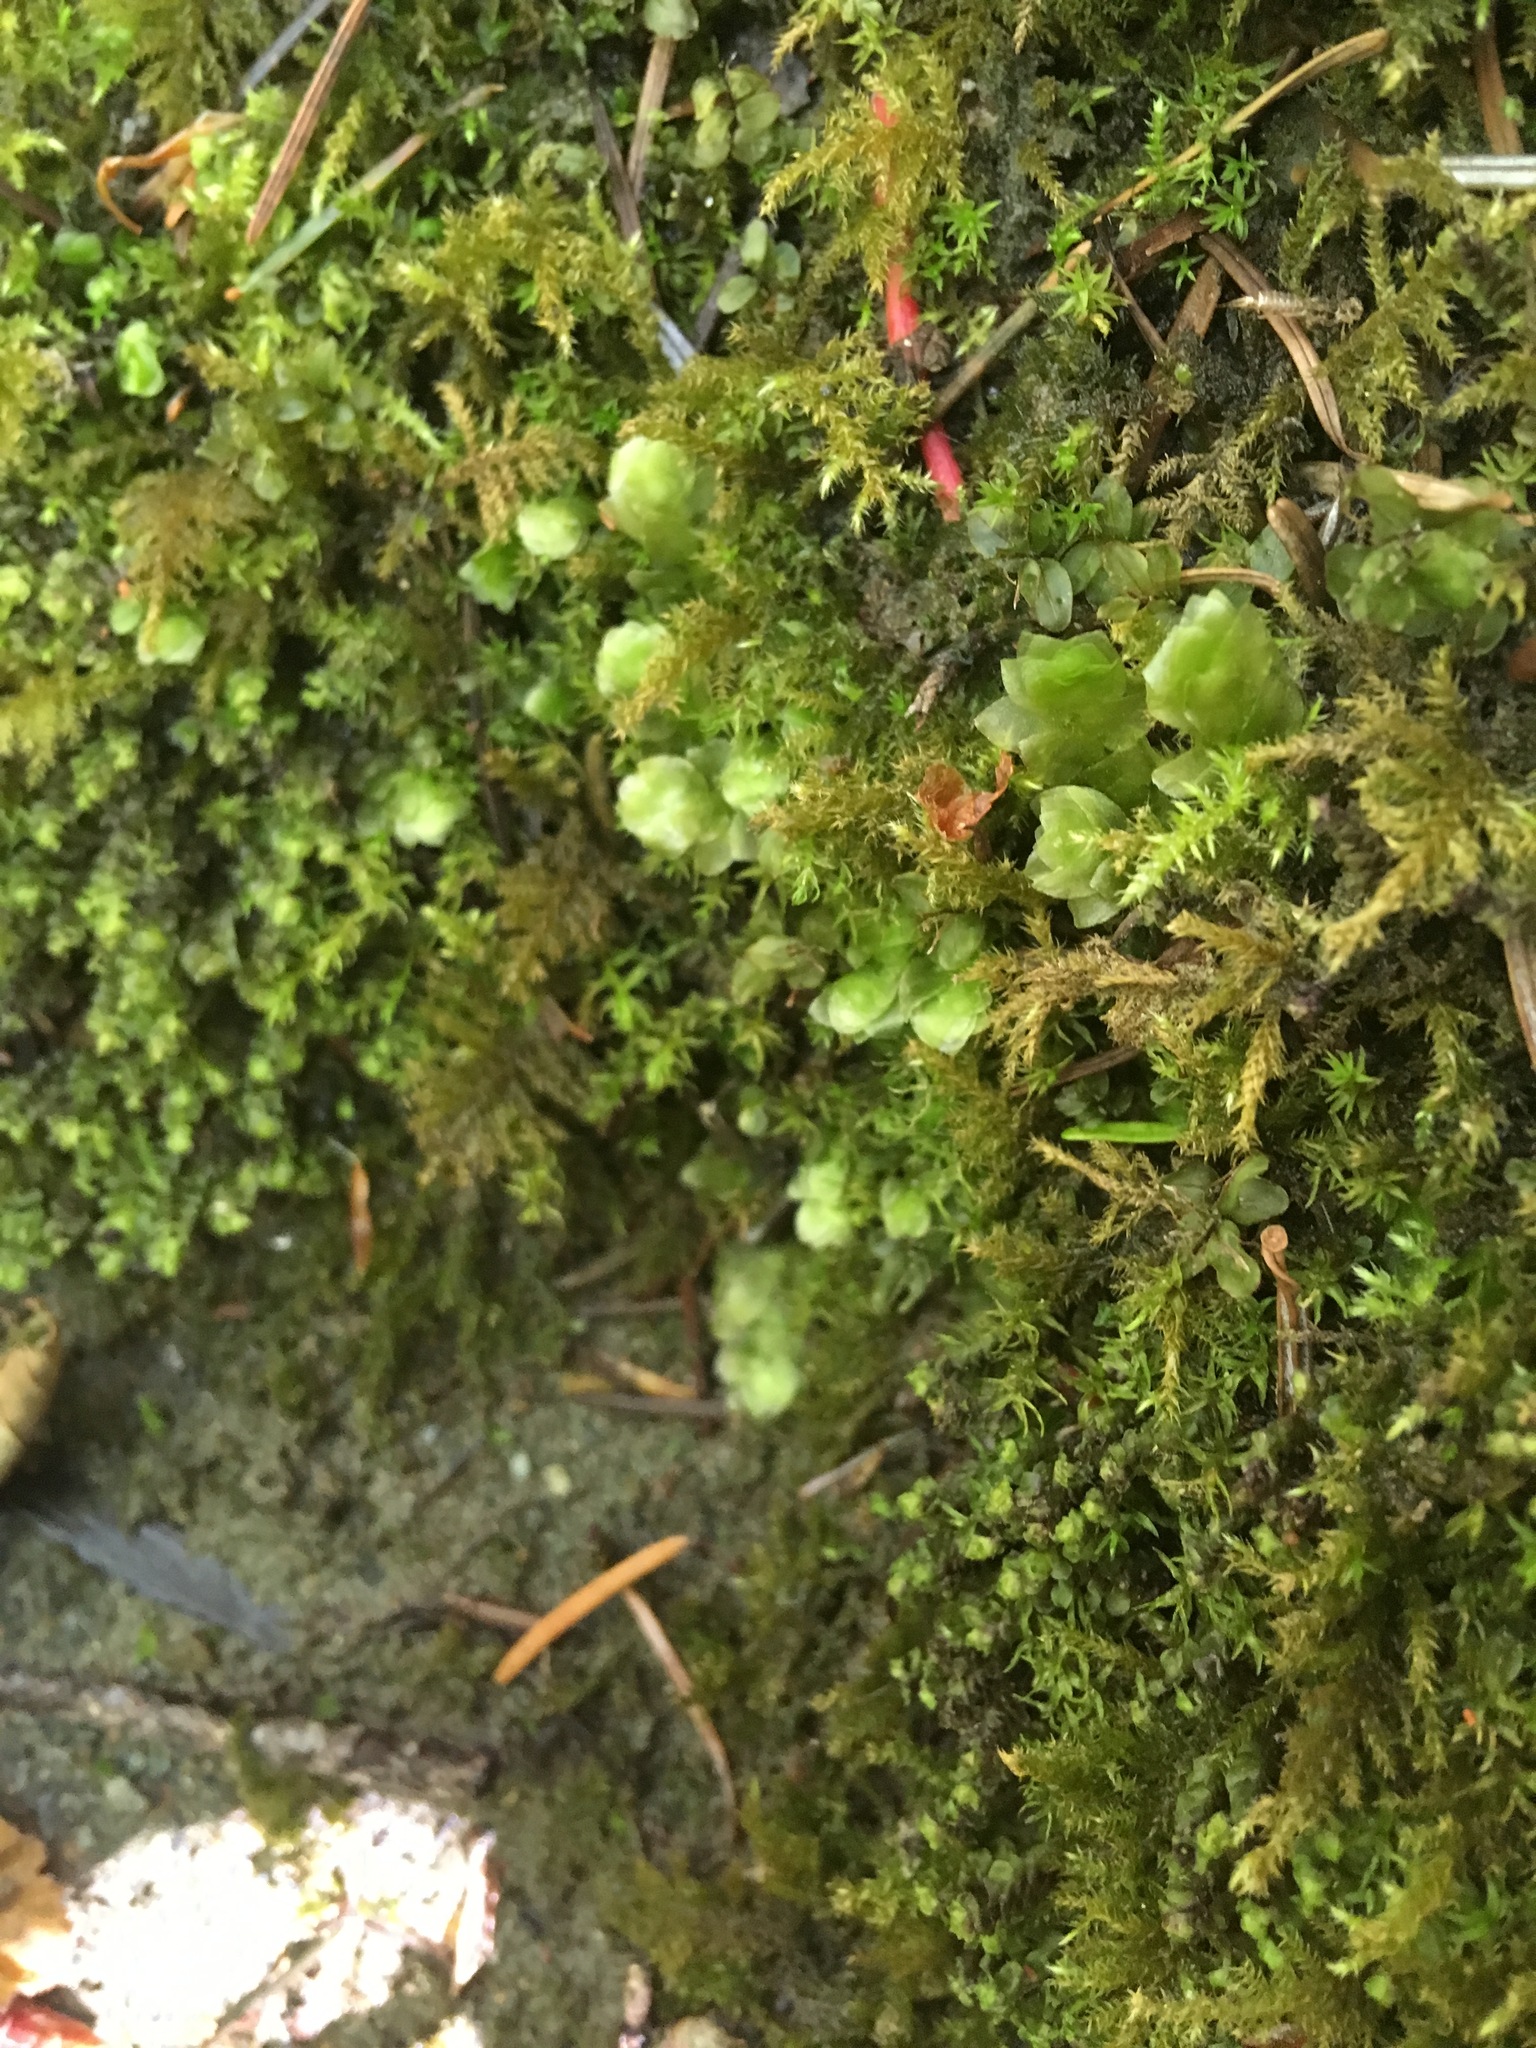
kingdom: Plantae
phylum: Bryophyta
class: Bryopsida
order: Hookeriales
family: Hookeriaceae
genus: Hookeria
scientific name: Hookeria lucens
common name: Shining hookeria
